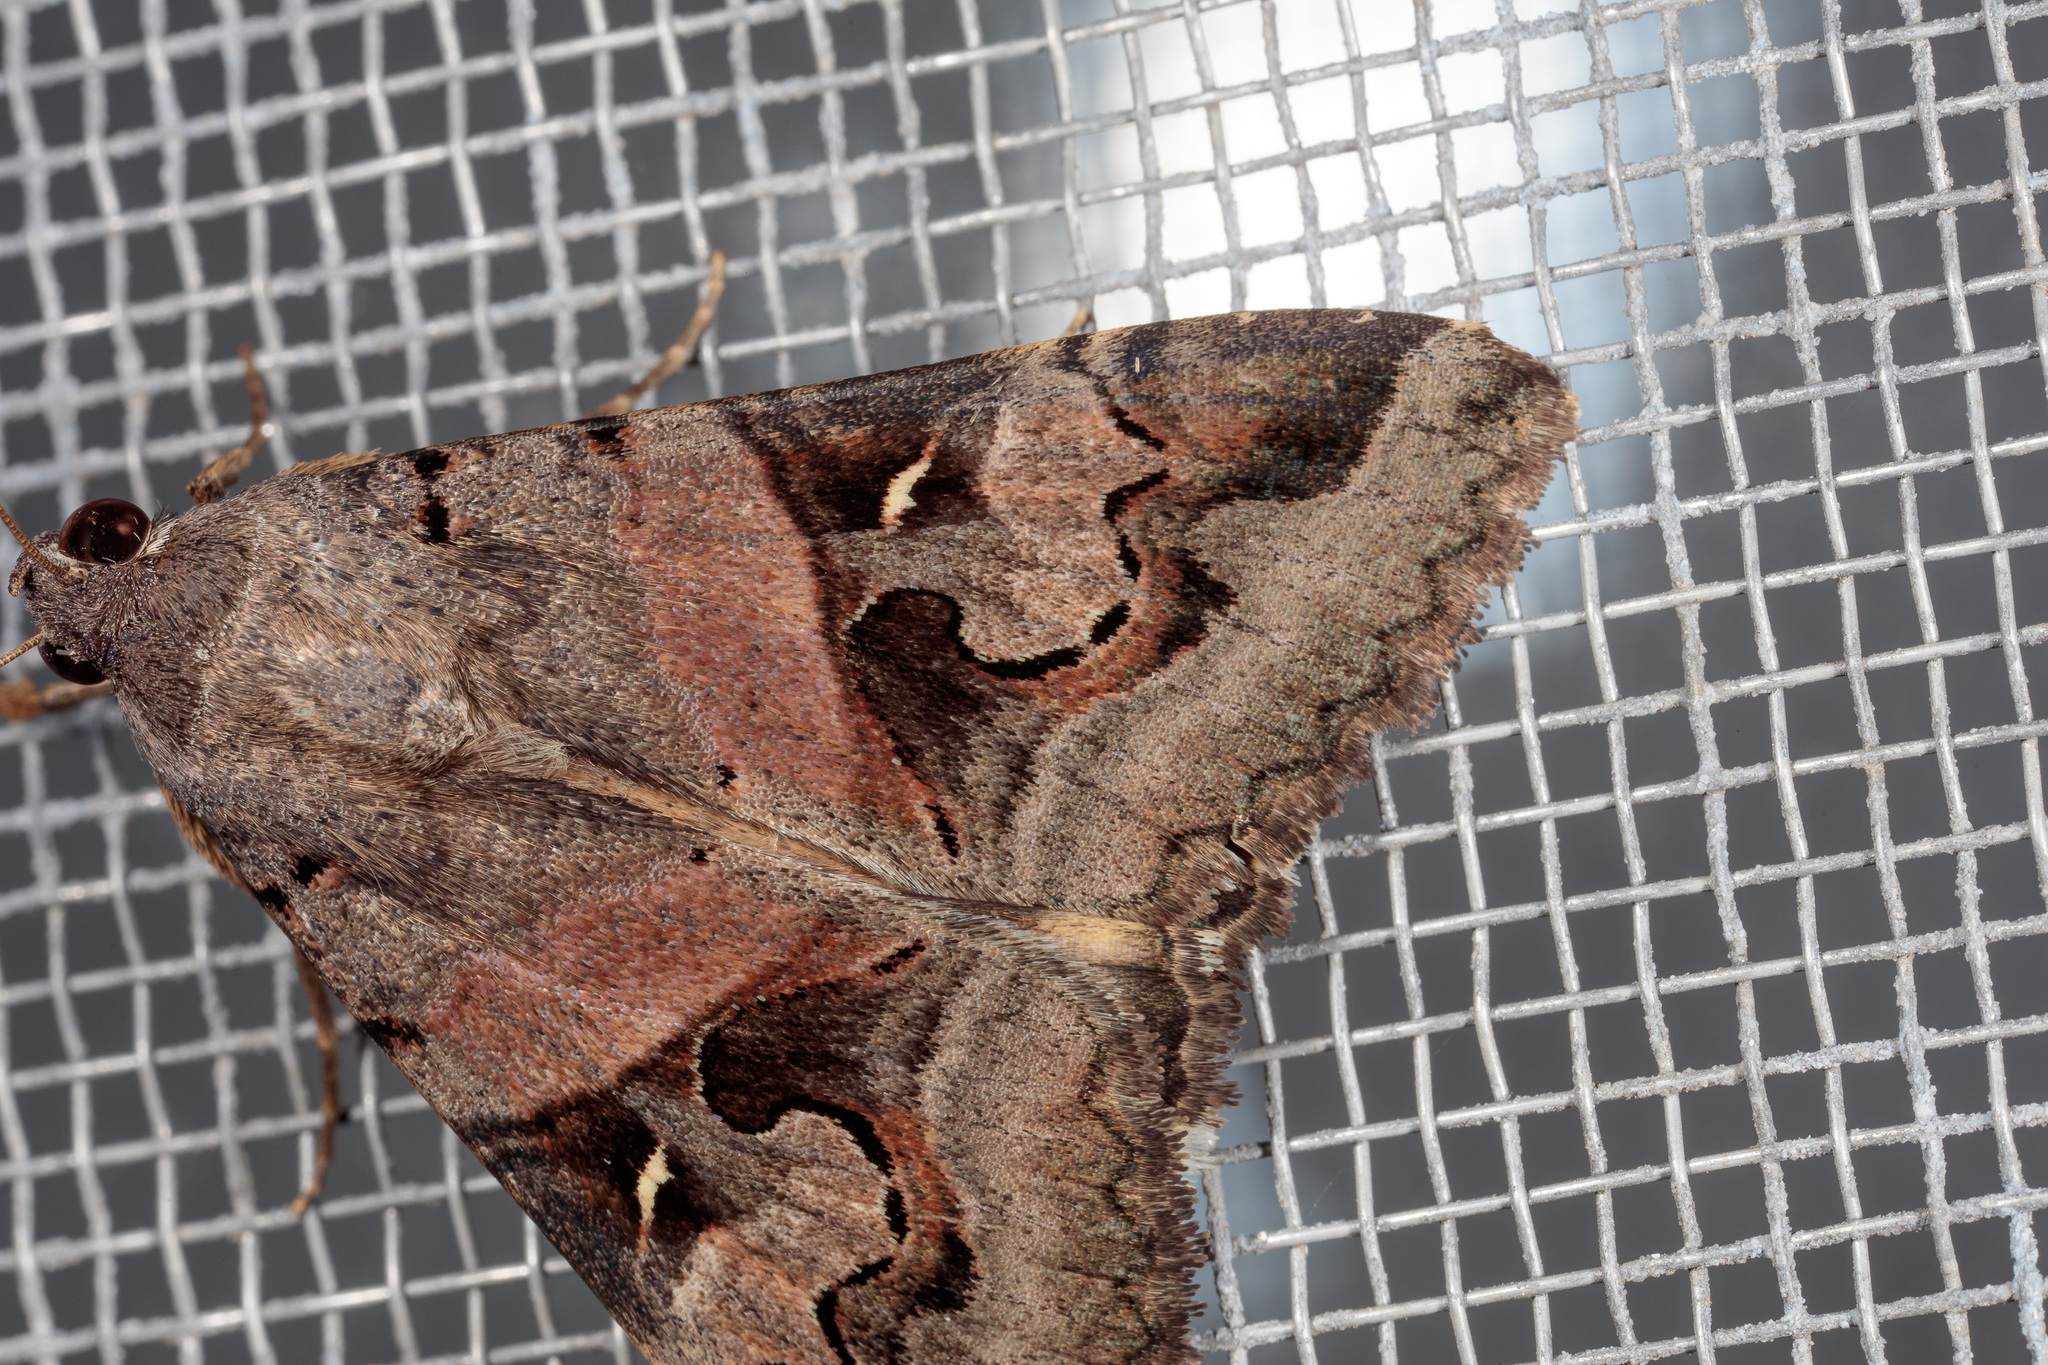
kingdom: Animalia
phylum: Arthropoda
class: Insecta
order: Lepidoptera
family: Erebidae
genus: Melipotis
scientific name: Melipotis indomita
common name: Moth
